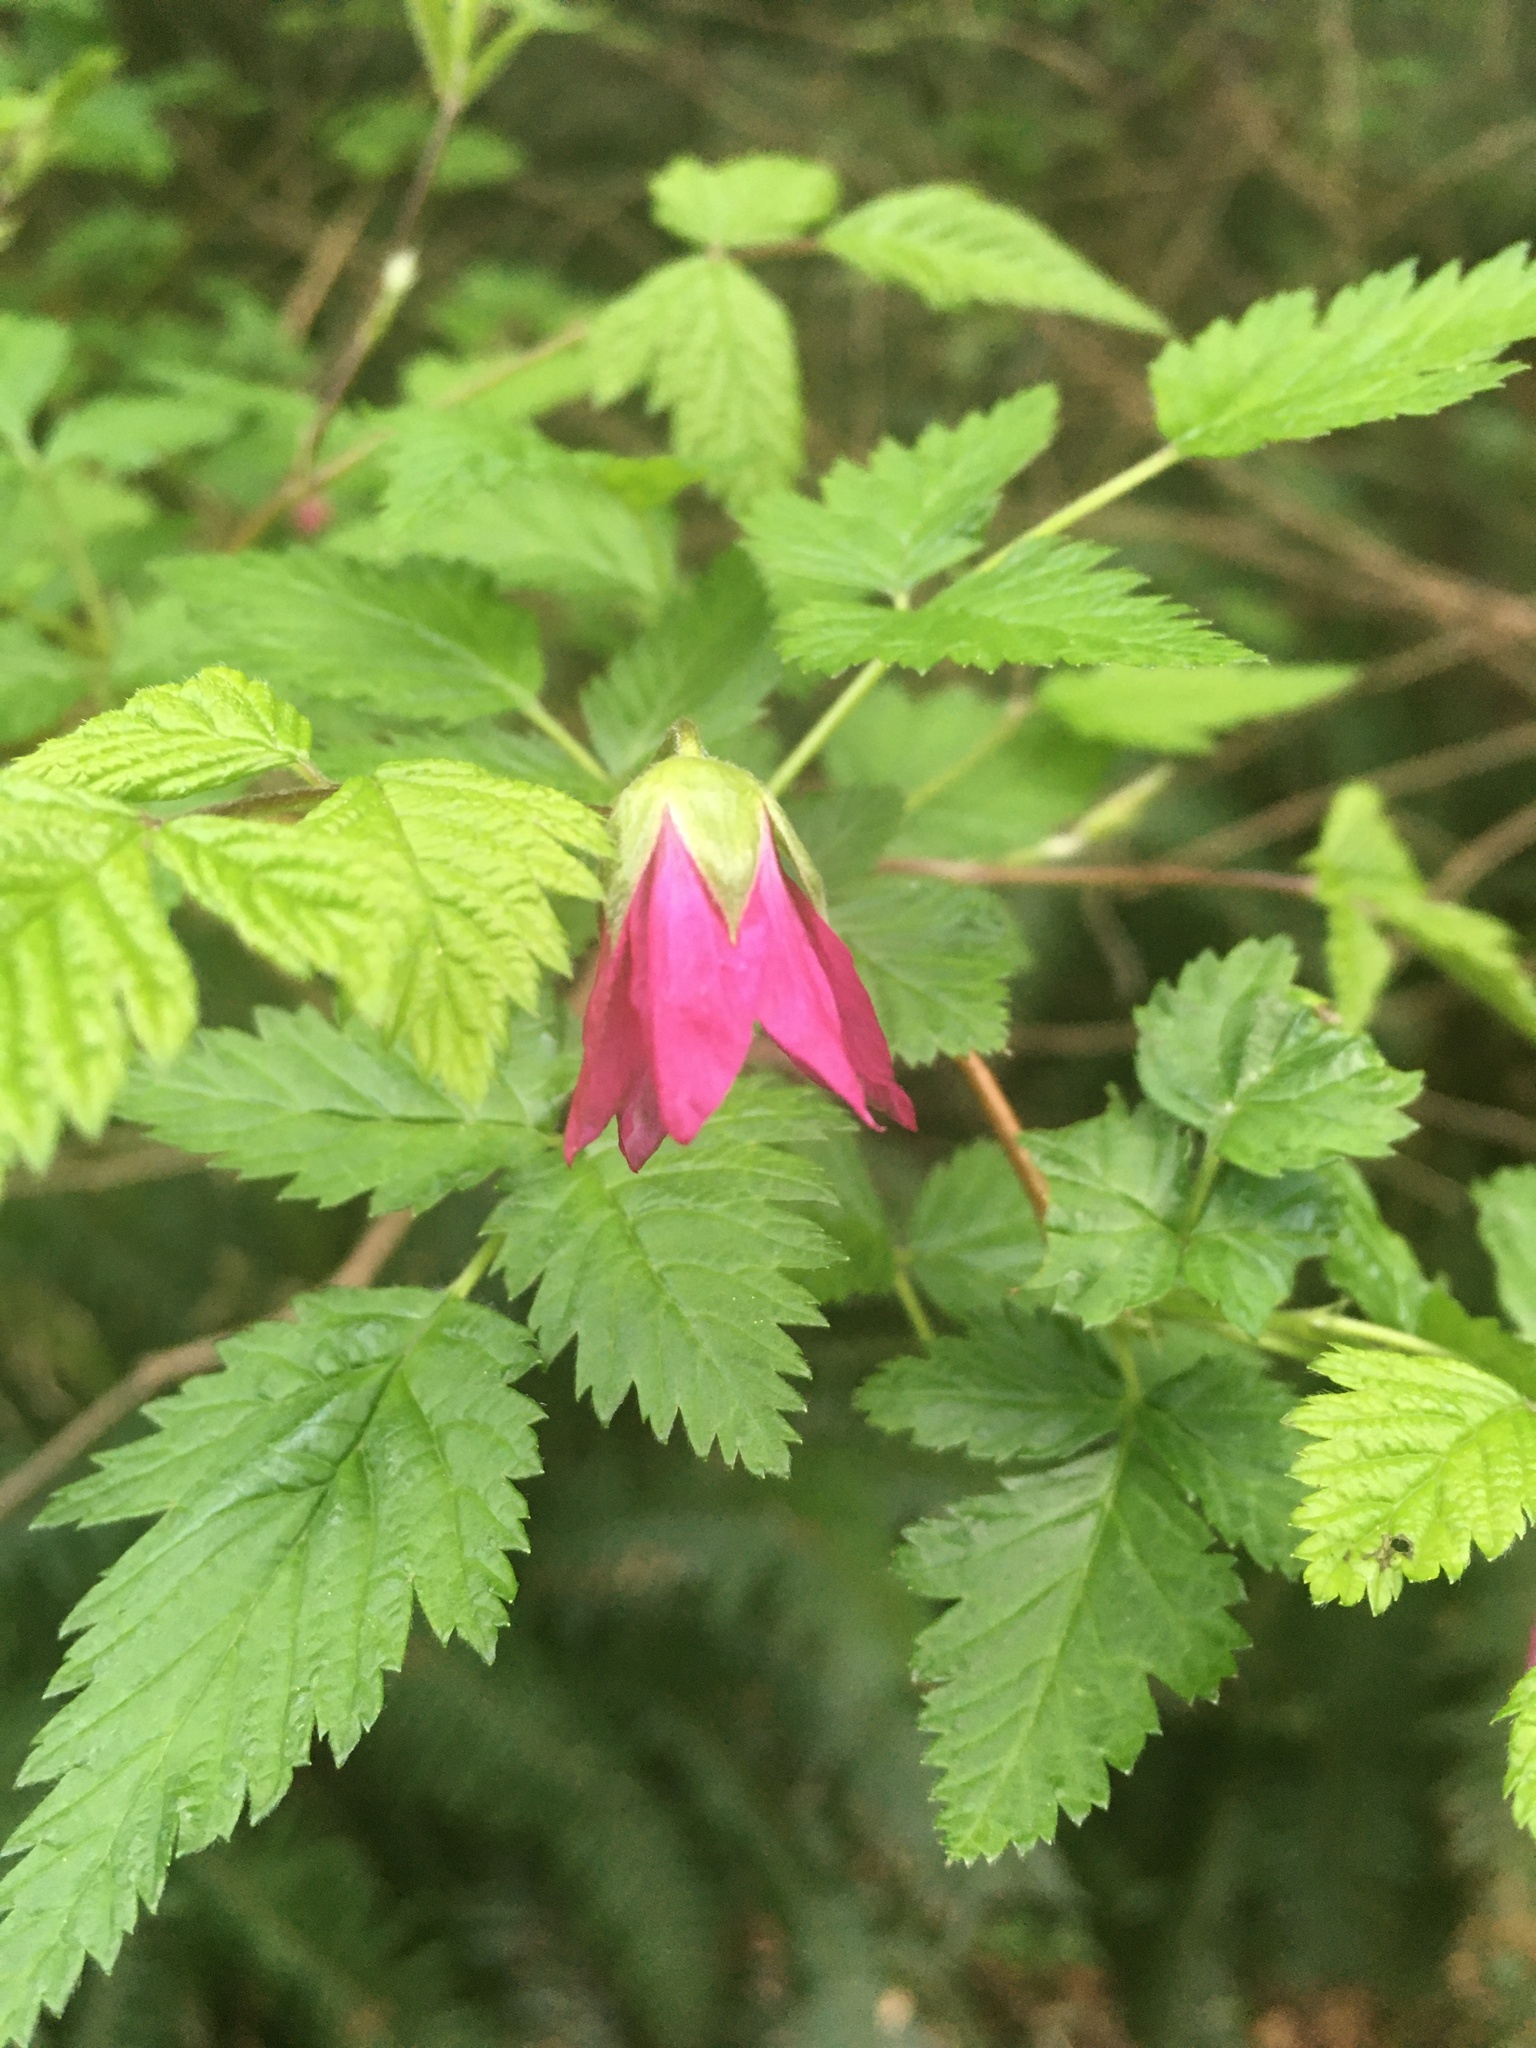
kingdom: Plantae
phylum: Tracheophyta
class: Magnoliopsida
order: Rosales
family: Rosaceae
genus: Rubus
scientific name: Rubus spectabilis
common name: Salmonberry
